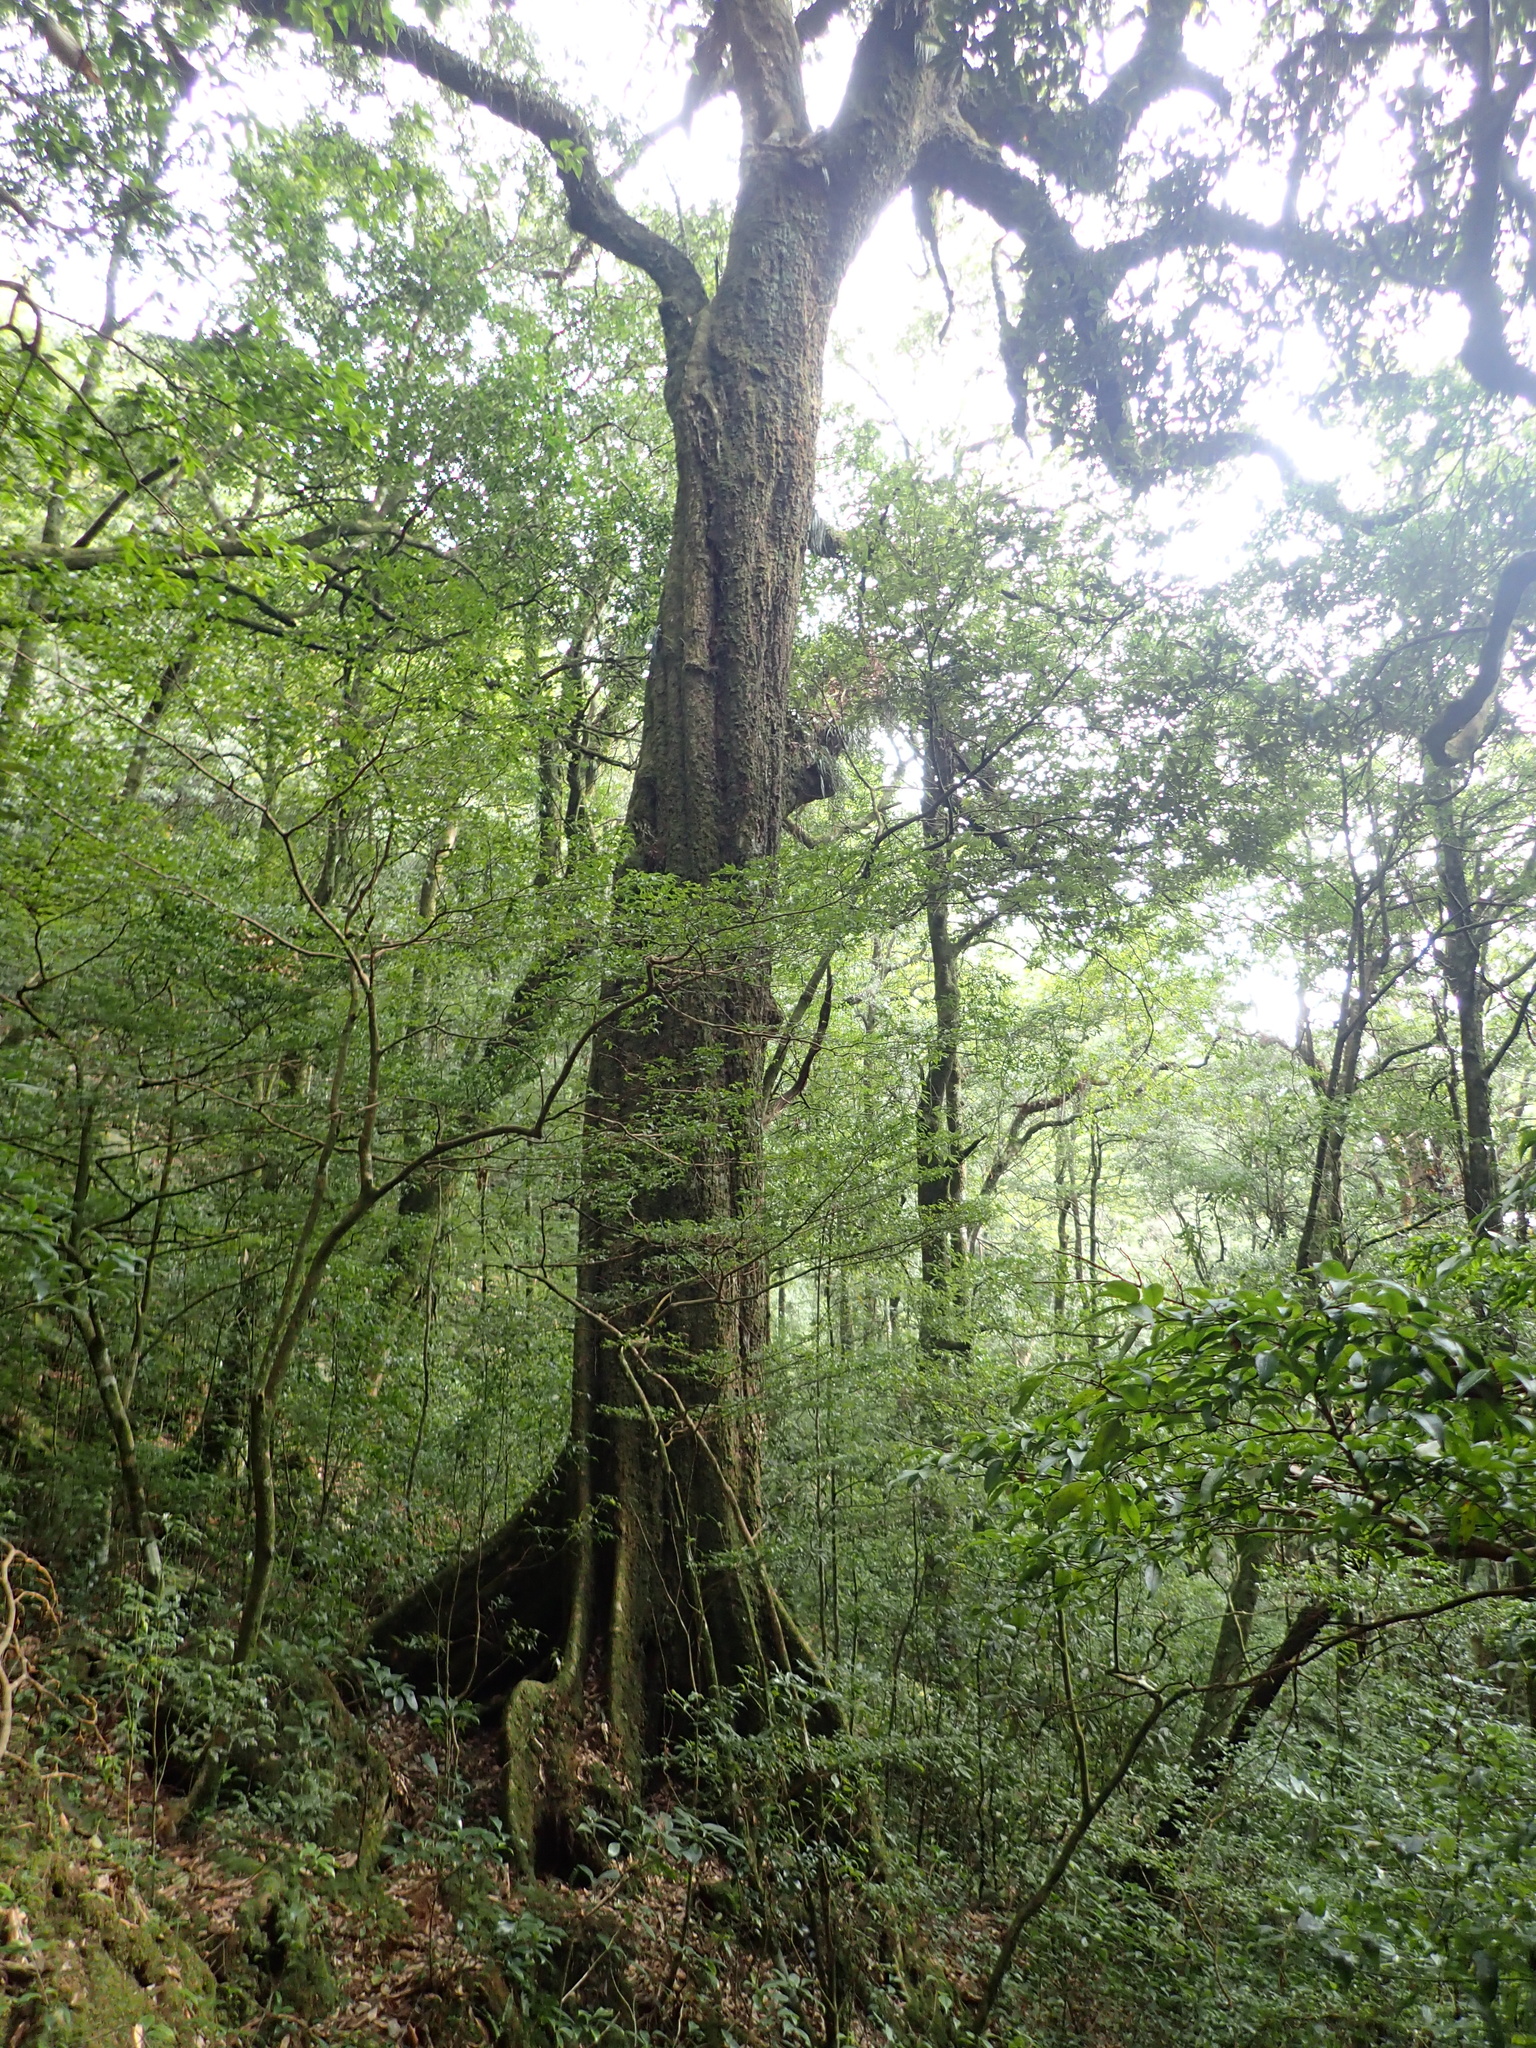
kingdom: Plantae
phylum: Tracheophyta
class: Magnoliopsida
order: Fagales
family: Fagaceae
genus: Lithocarpus
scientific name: Lithocarpus amygdalifolius
